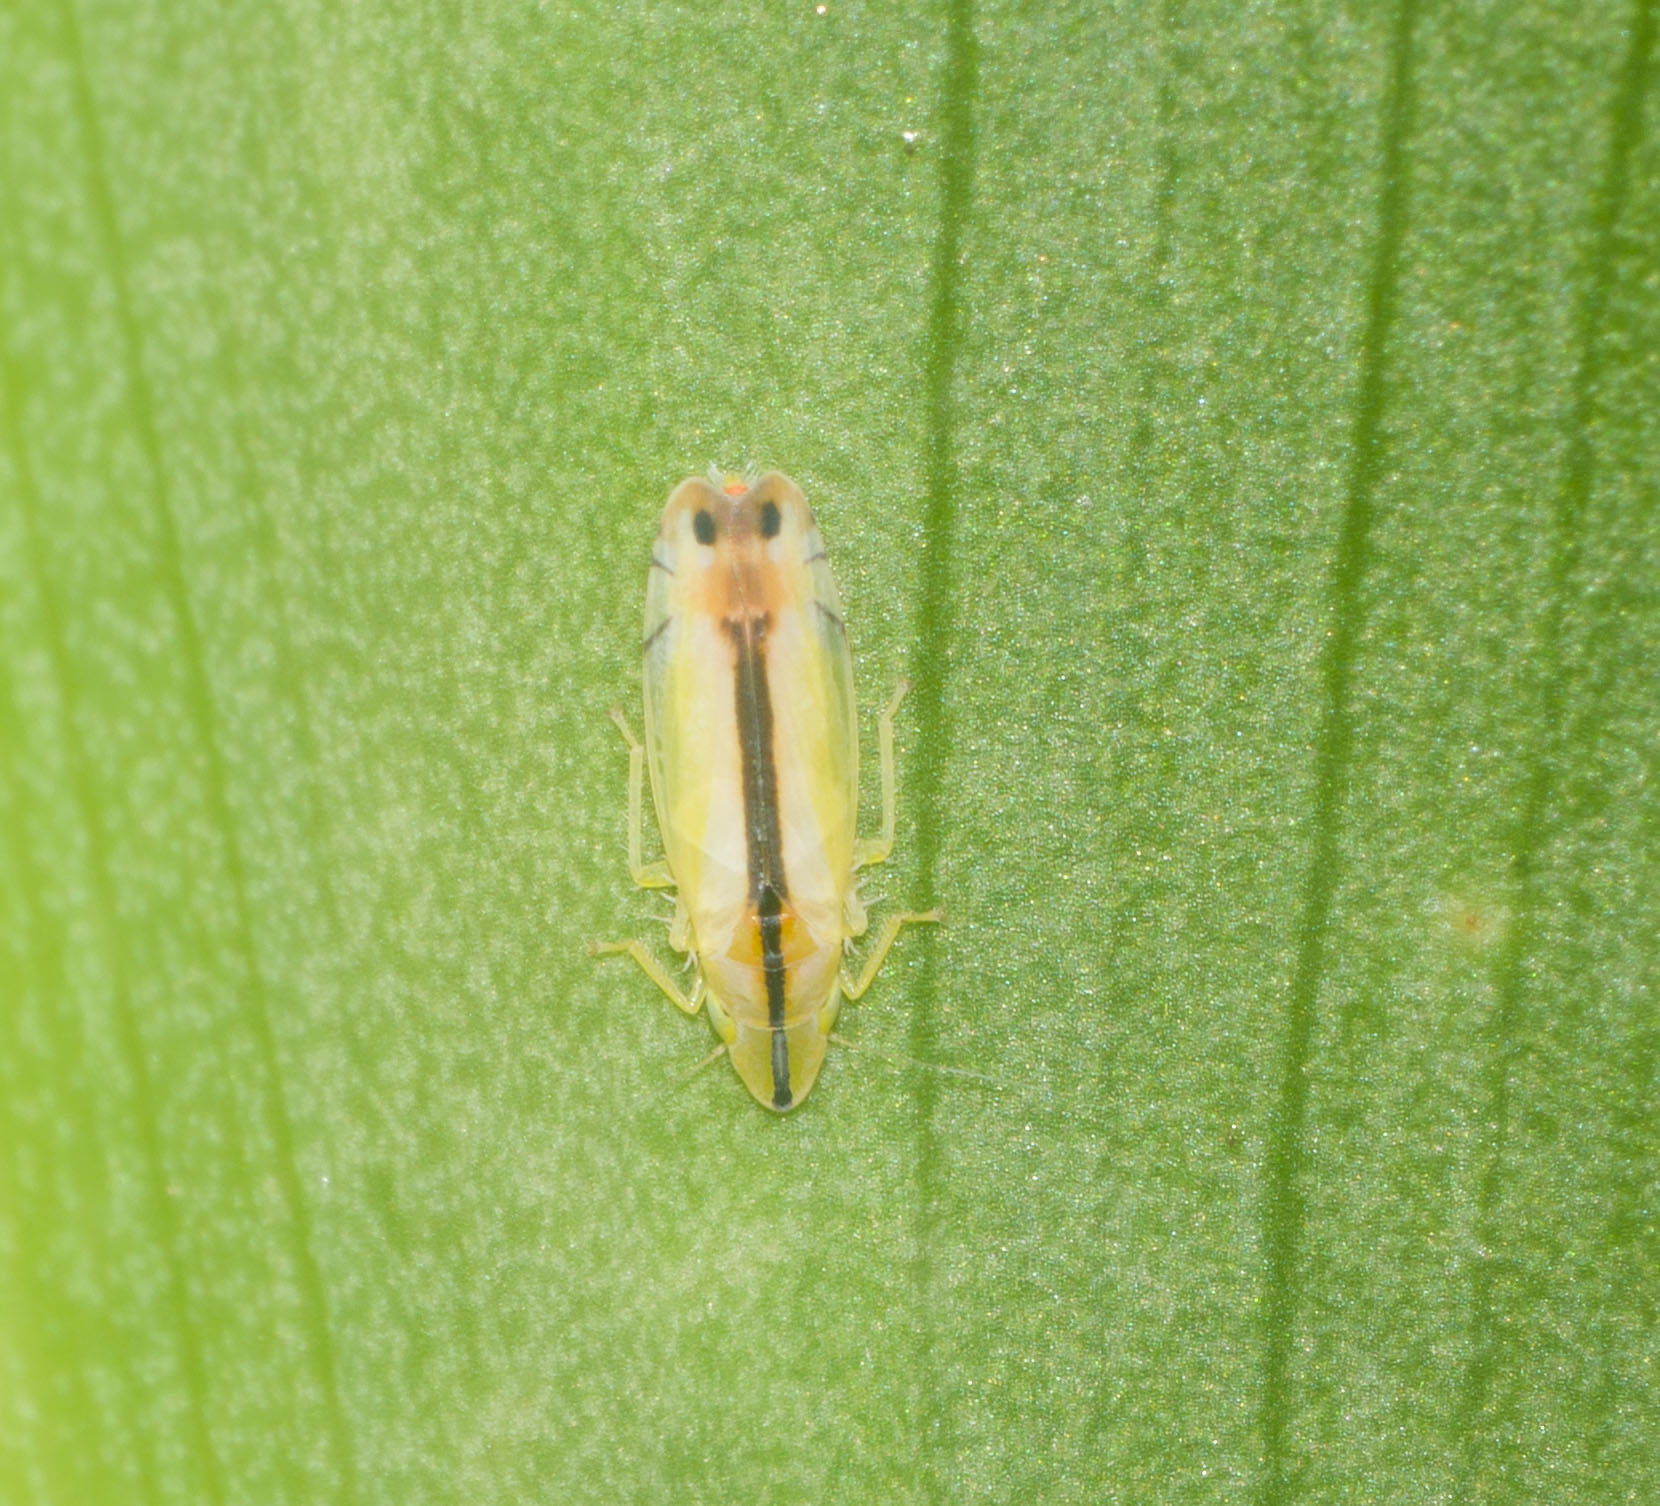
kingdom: Animalia
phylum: Arthropoda
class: Insecta
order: Hemiptera
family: Cicadellidae
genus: Sophonia
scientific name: Sophonia orientalis
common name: Two-spotted leafhopper
